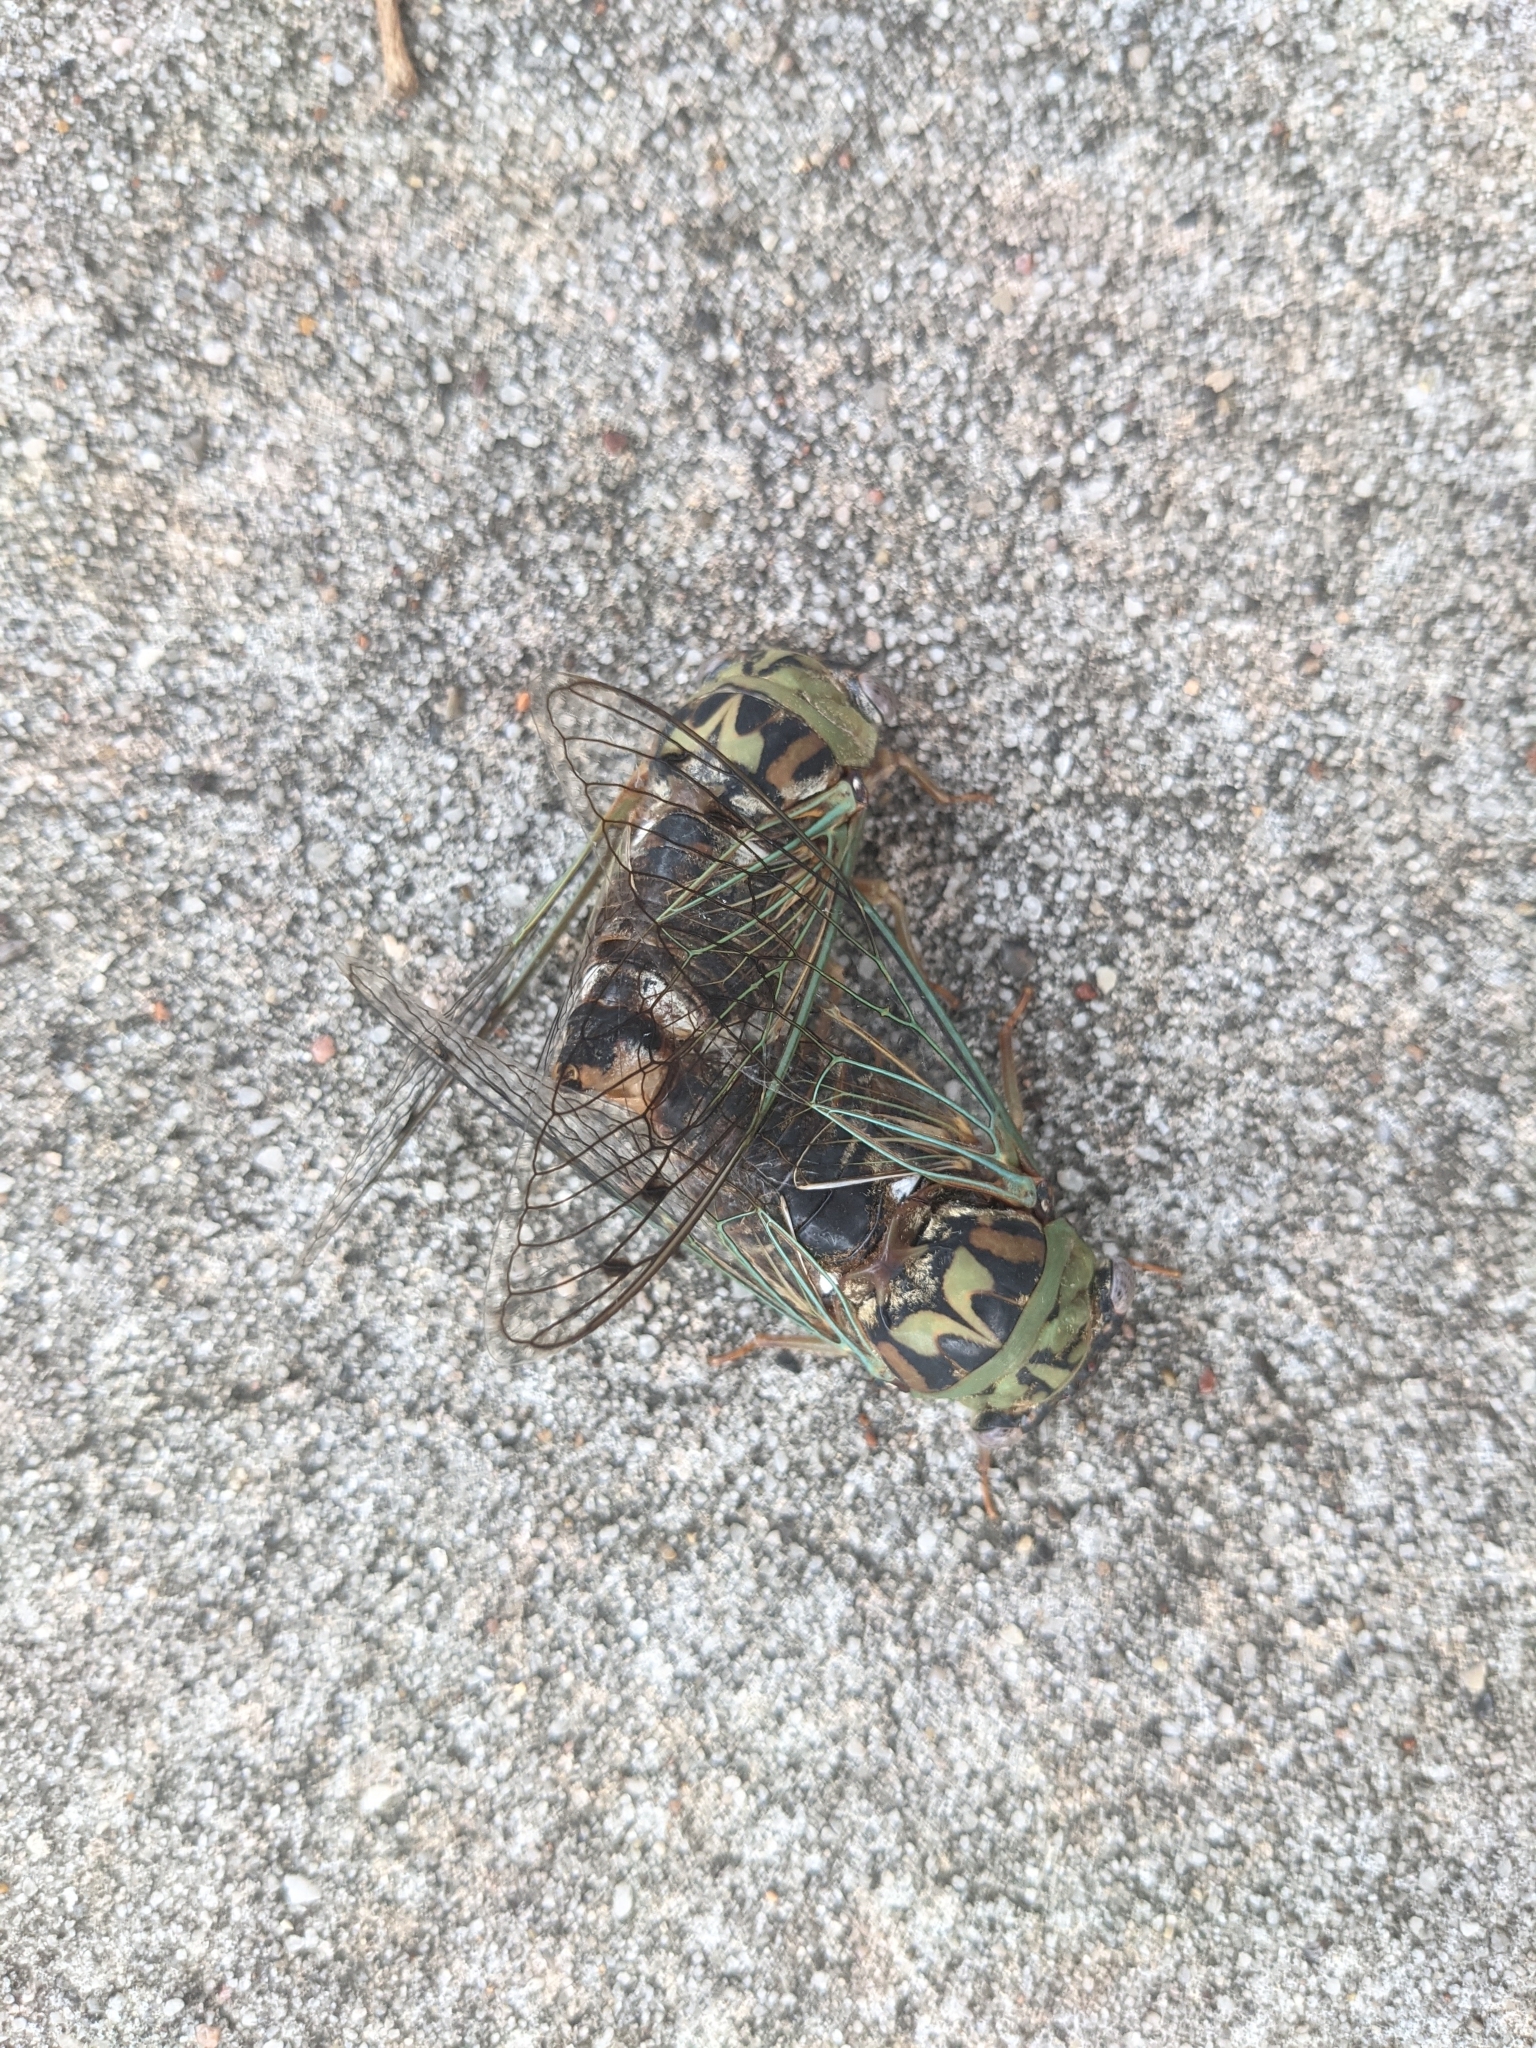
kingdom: Animalia
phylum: Arthropoda
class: Insecta
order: Hemiptera
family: Cicadidae
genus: Megatibicen
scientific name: Megatibicen resh
